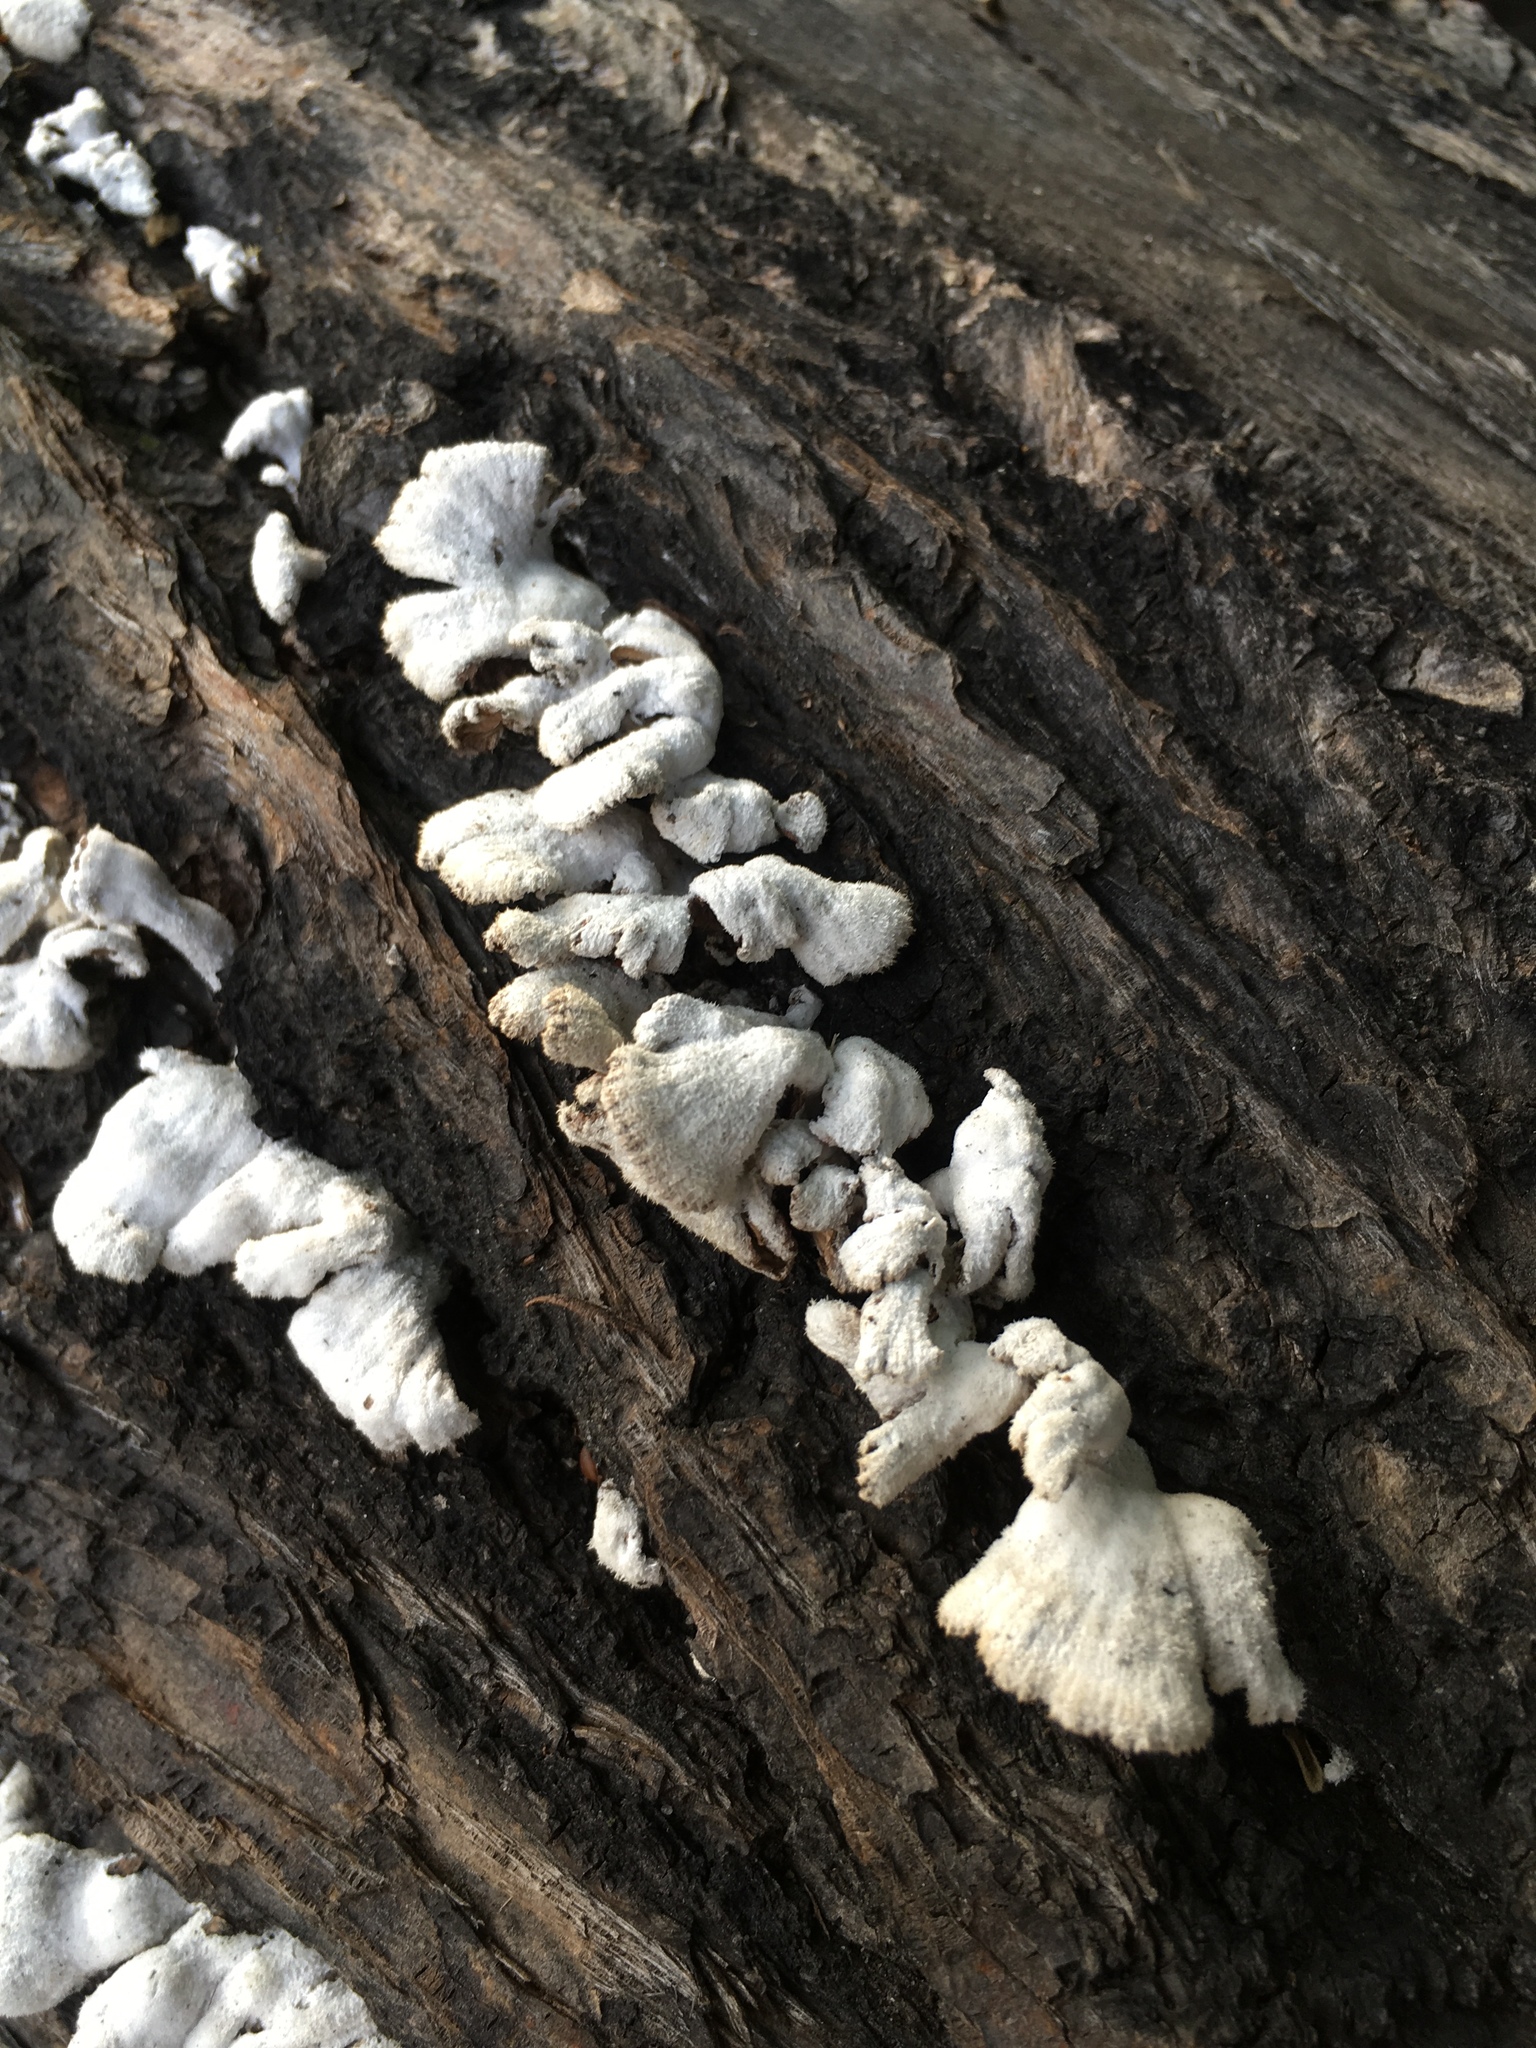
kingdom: Fungi
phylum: Basidiomycota
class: Agaricomycetes
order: Agaricales
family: Schizophyllaceae
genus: Schizophyllum
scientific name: Schizophyllum commune
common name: Common porecrust
